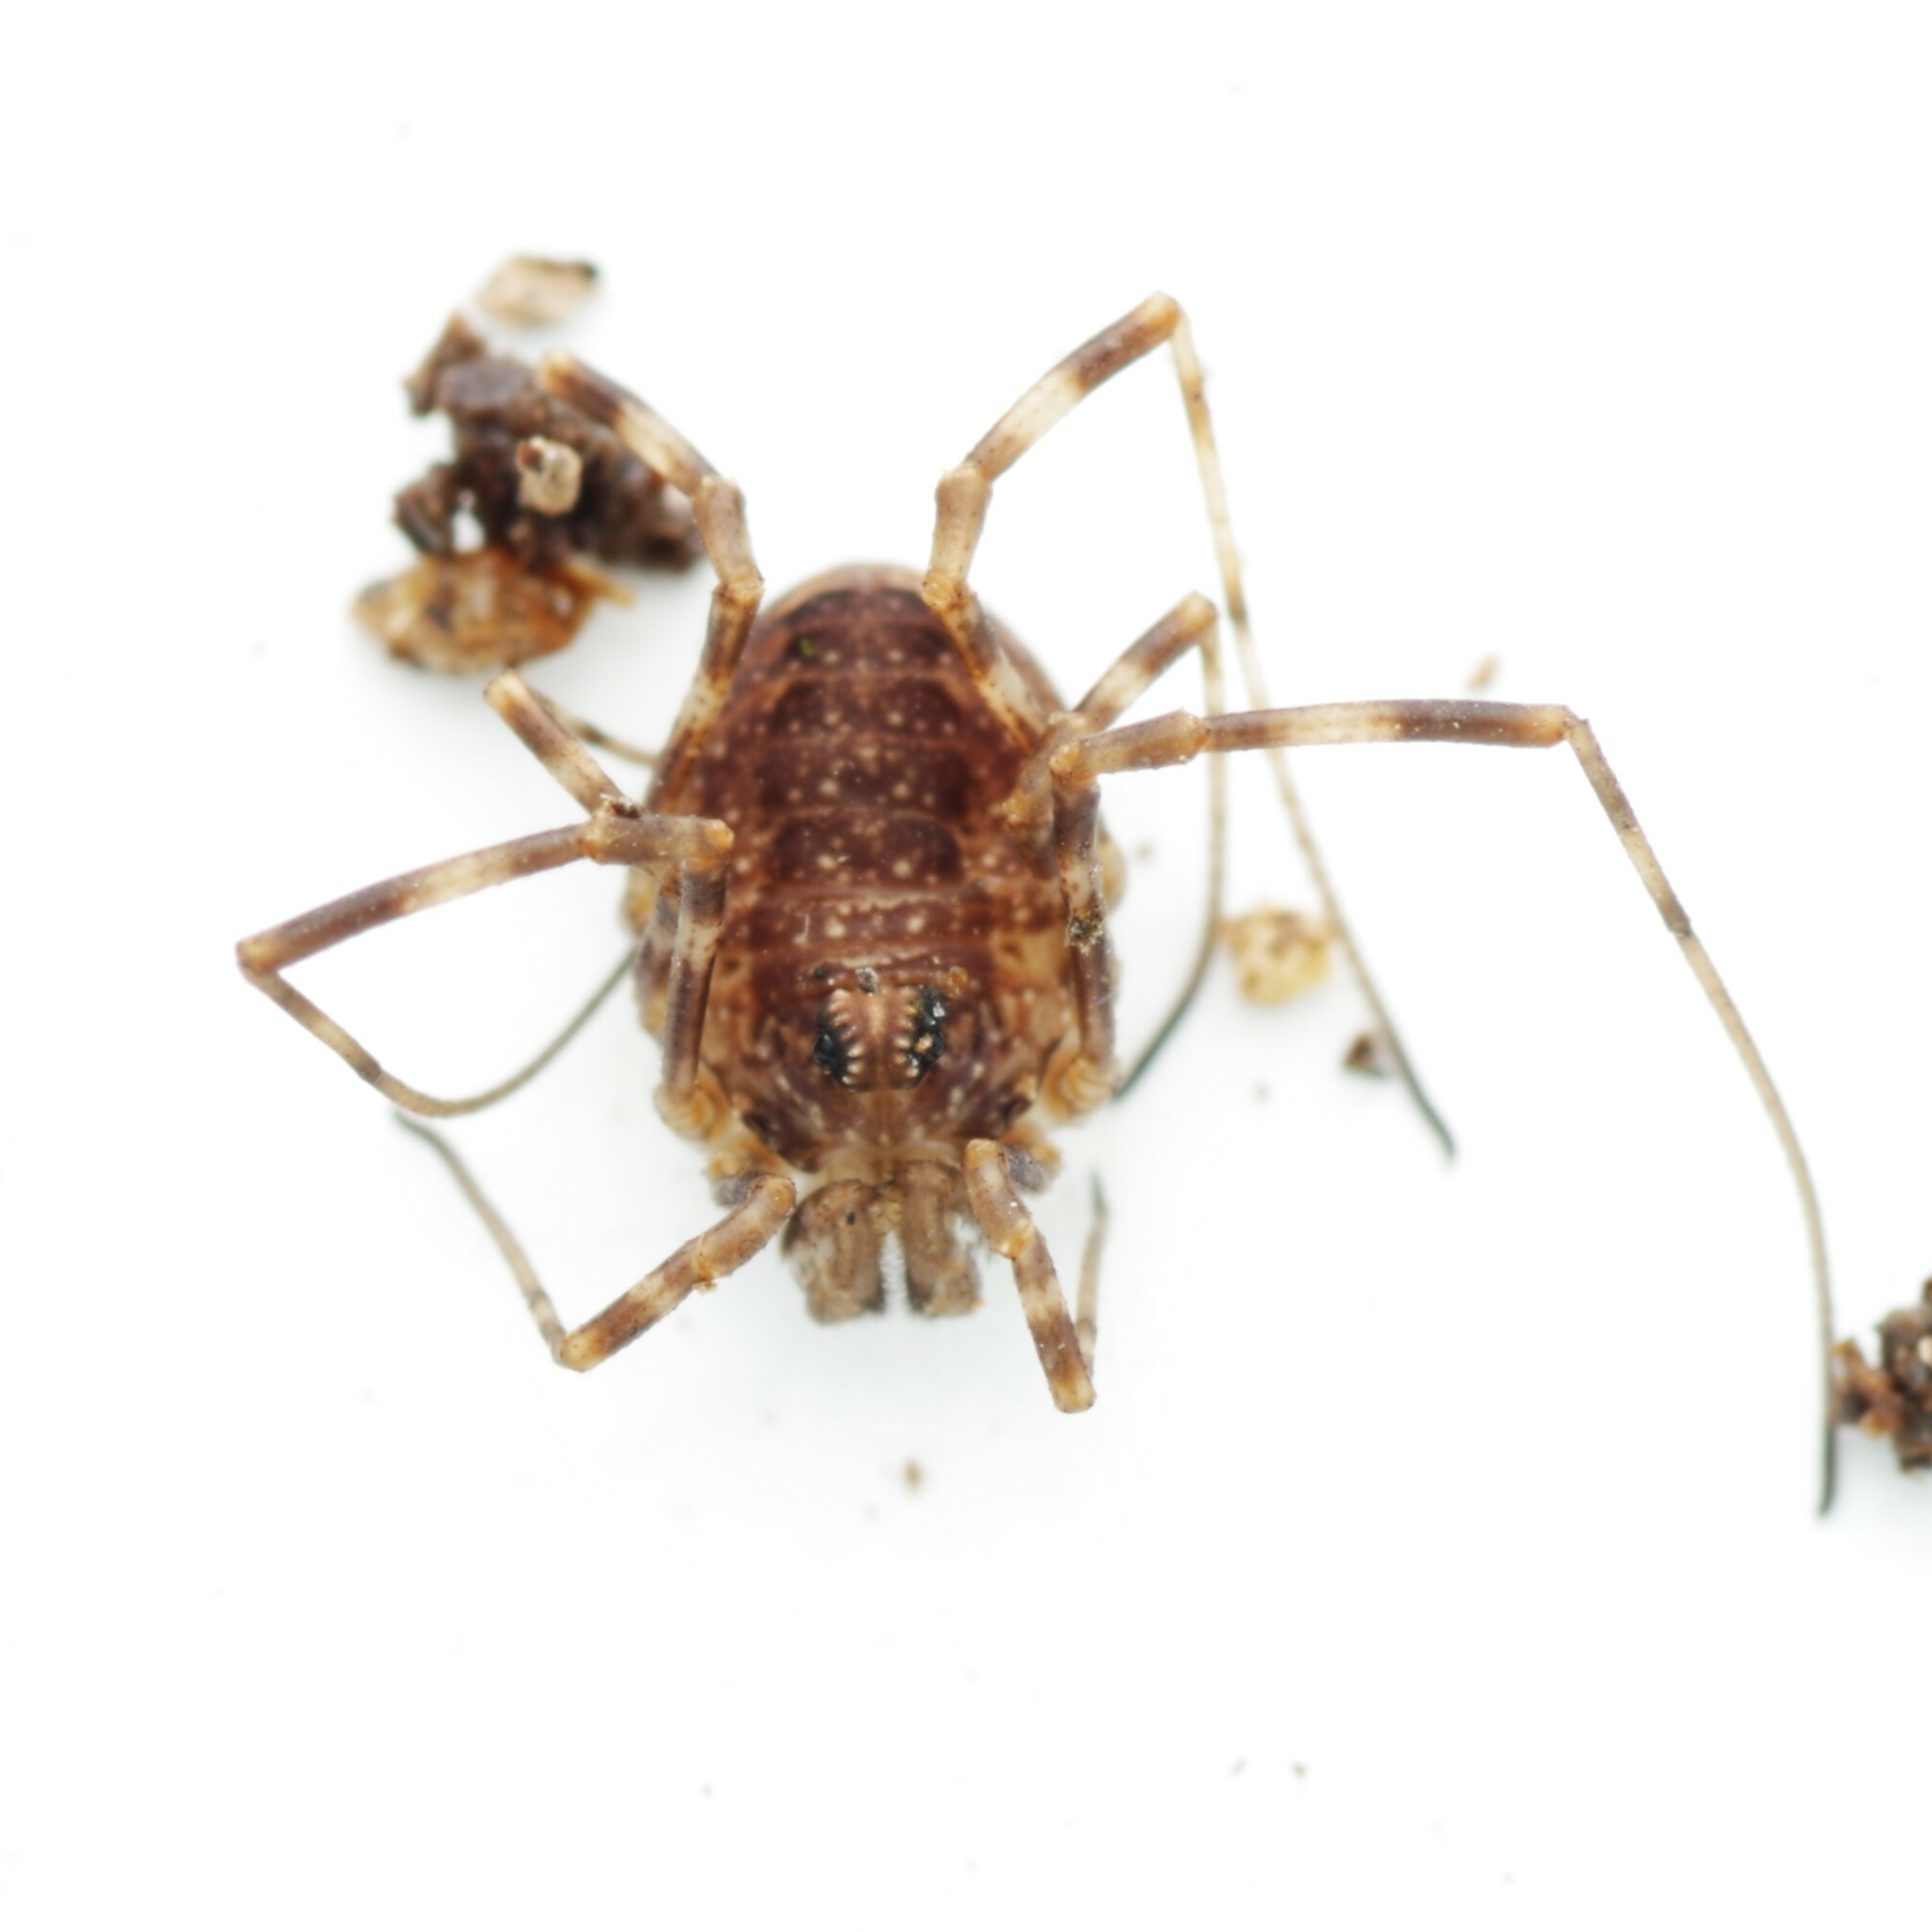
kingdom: Animalia
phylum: Arthropoda
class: Arachnida
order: Opiliones
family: Phalangiidae
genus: Rilaena
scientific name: Rilaena triangularis
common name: Spring harvestman
